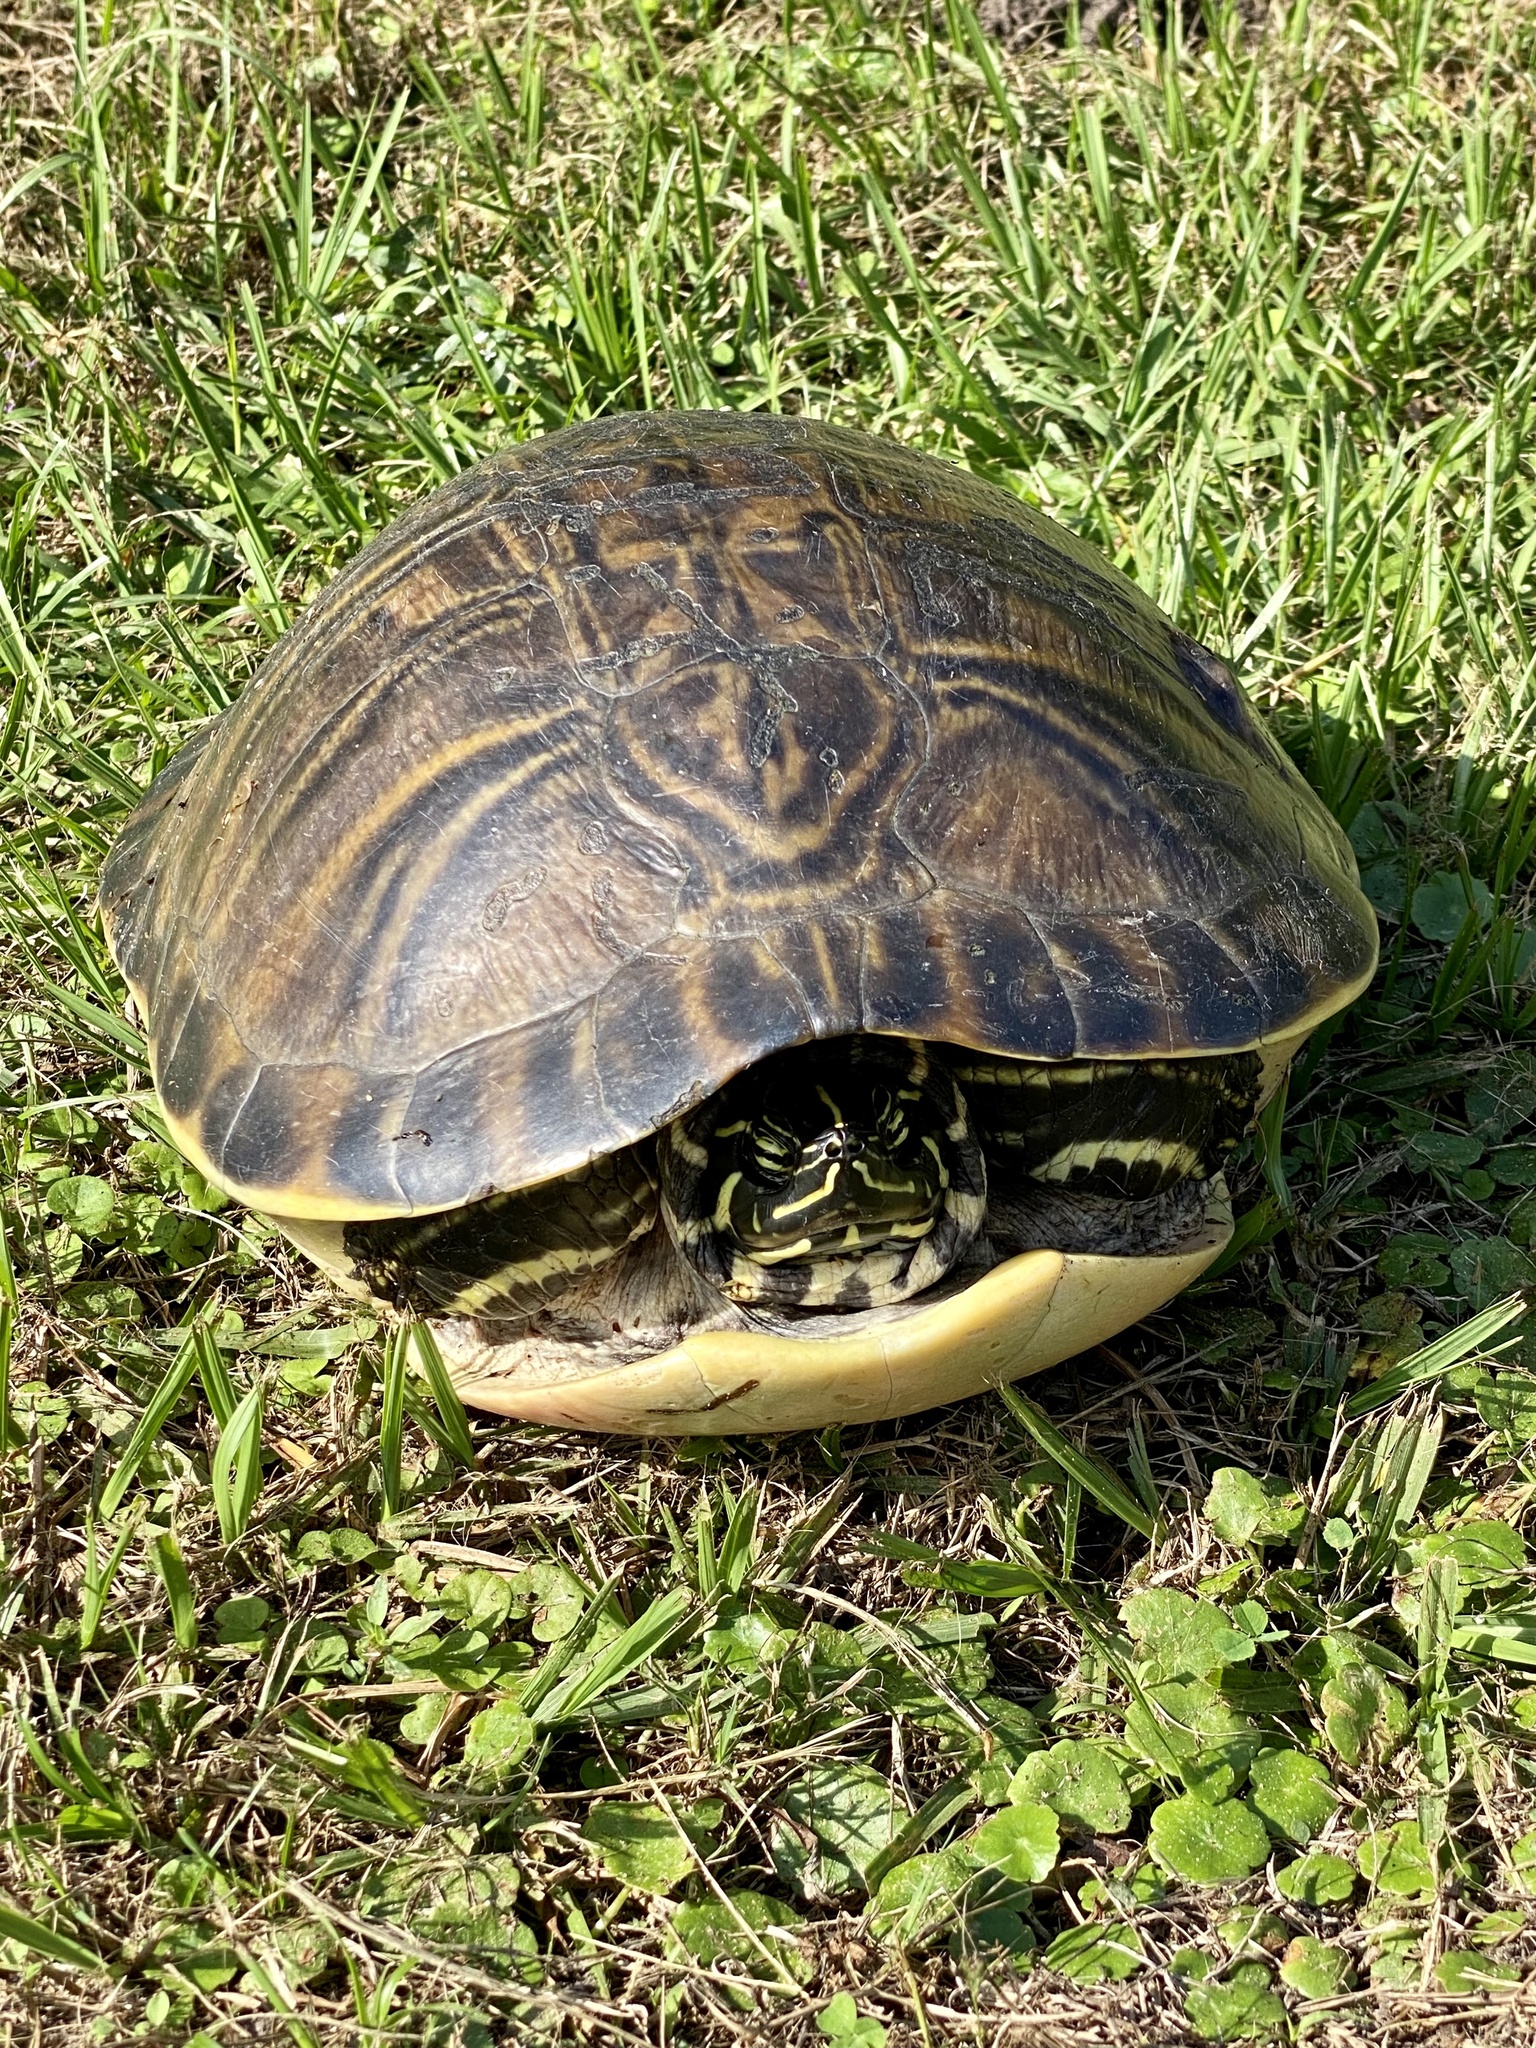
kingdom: Animalia
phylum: Chordata
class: Testudines
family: Emydidae
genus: Pseudemys
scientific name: Pseudemys peninsularis
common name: Peninsula cooter
